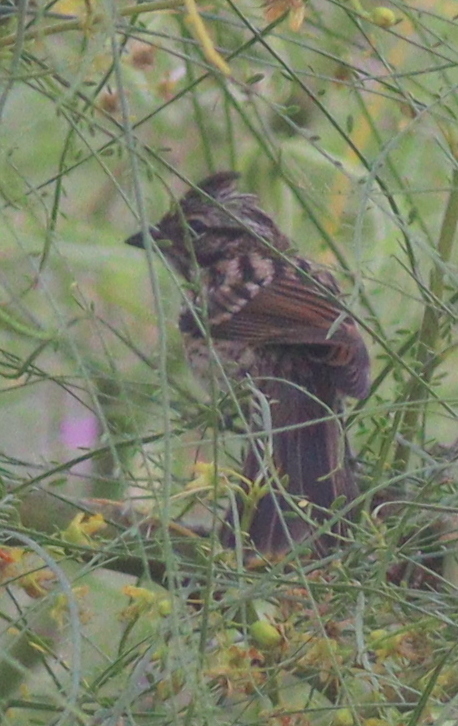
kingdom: Animalia
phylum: Chordata
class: Aves
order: Passeriformes
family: Passerellidae
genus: Zonotrichia
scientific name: Zonotrichia capensis
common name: Rufous-collared sparrow
